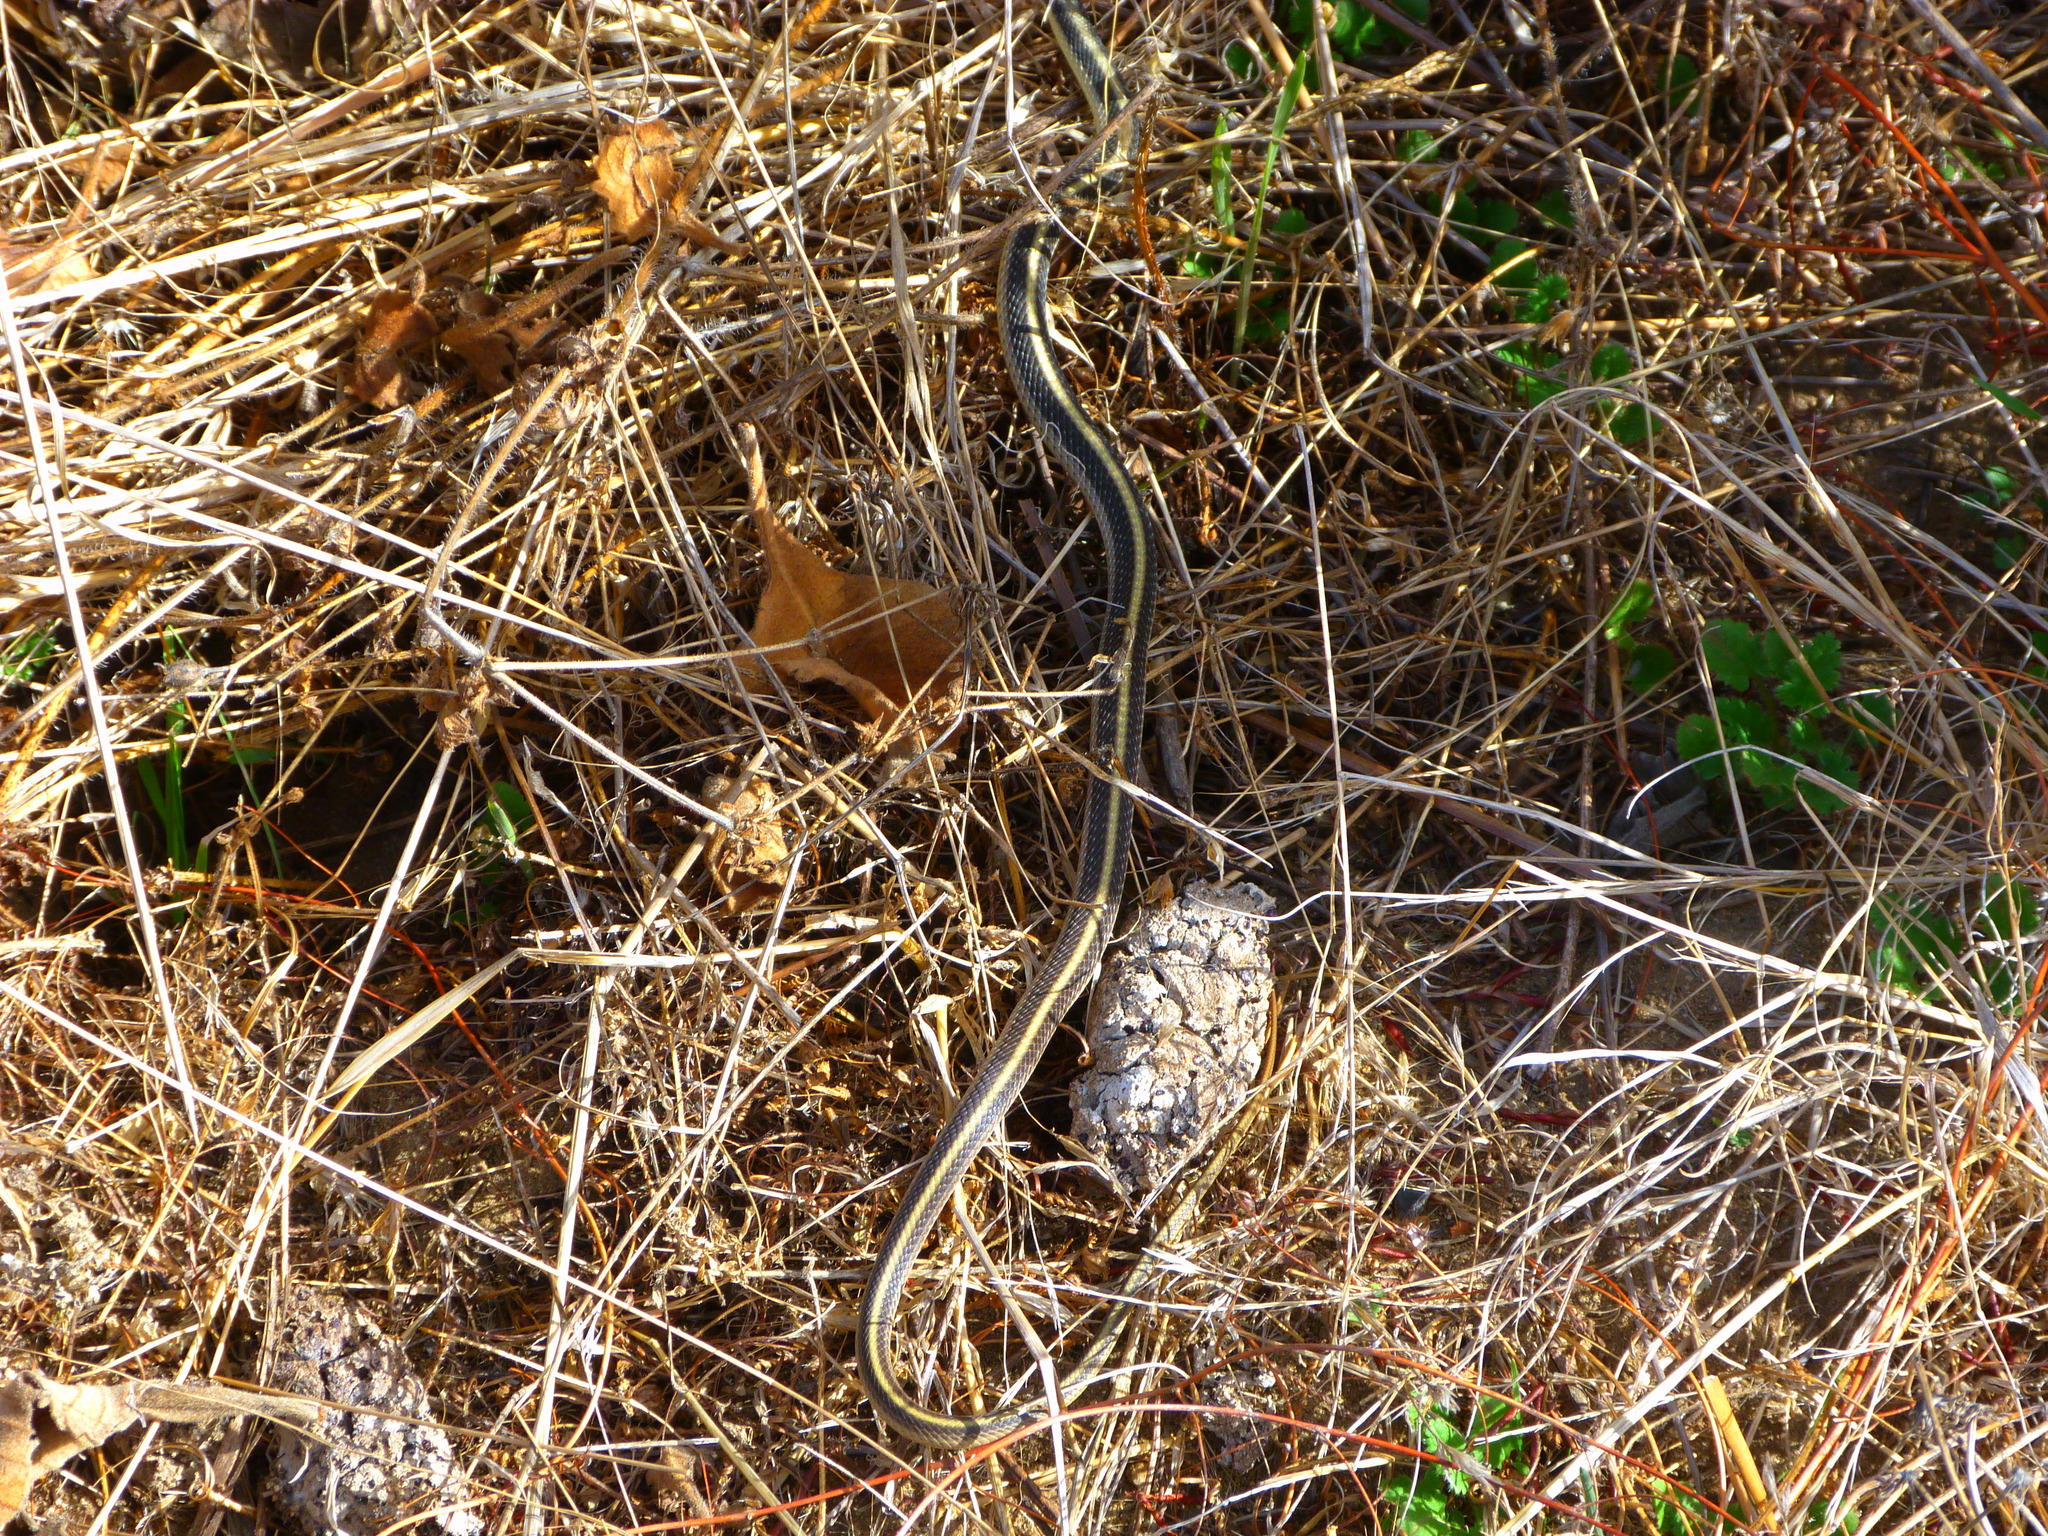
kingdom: Animalia
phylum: Chordata
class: Squamata
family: Colubridae
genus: Salvadora
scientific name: Salvadora hexalepis
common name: Western patchnose snake
